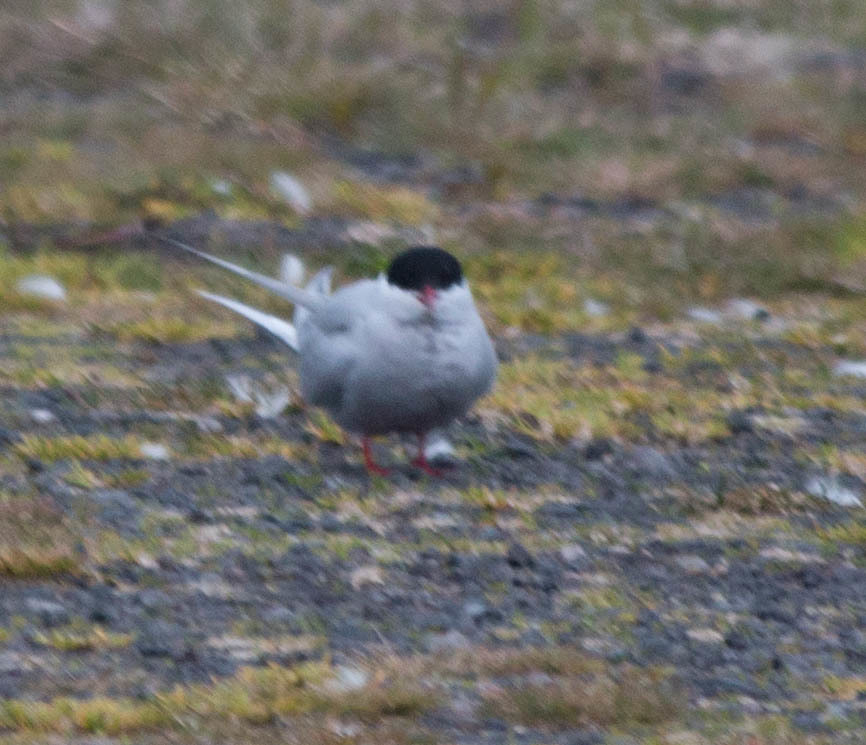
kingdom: Animalia
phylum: Chordata
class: Aves
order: Charadriiformes
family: Laridae
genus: Sterna
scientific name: Sterna paradisaea
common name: Arctic tern
